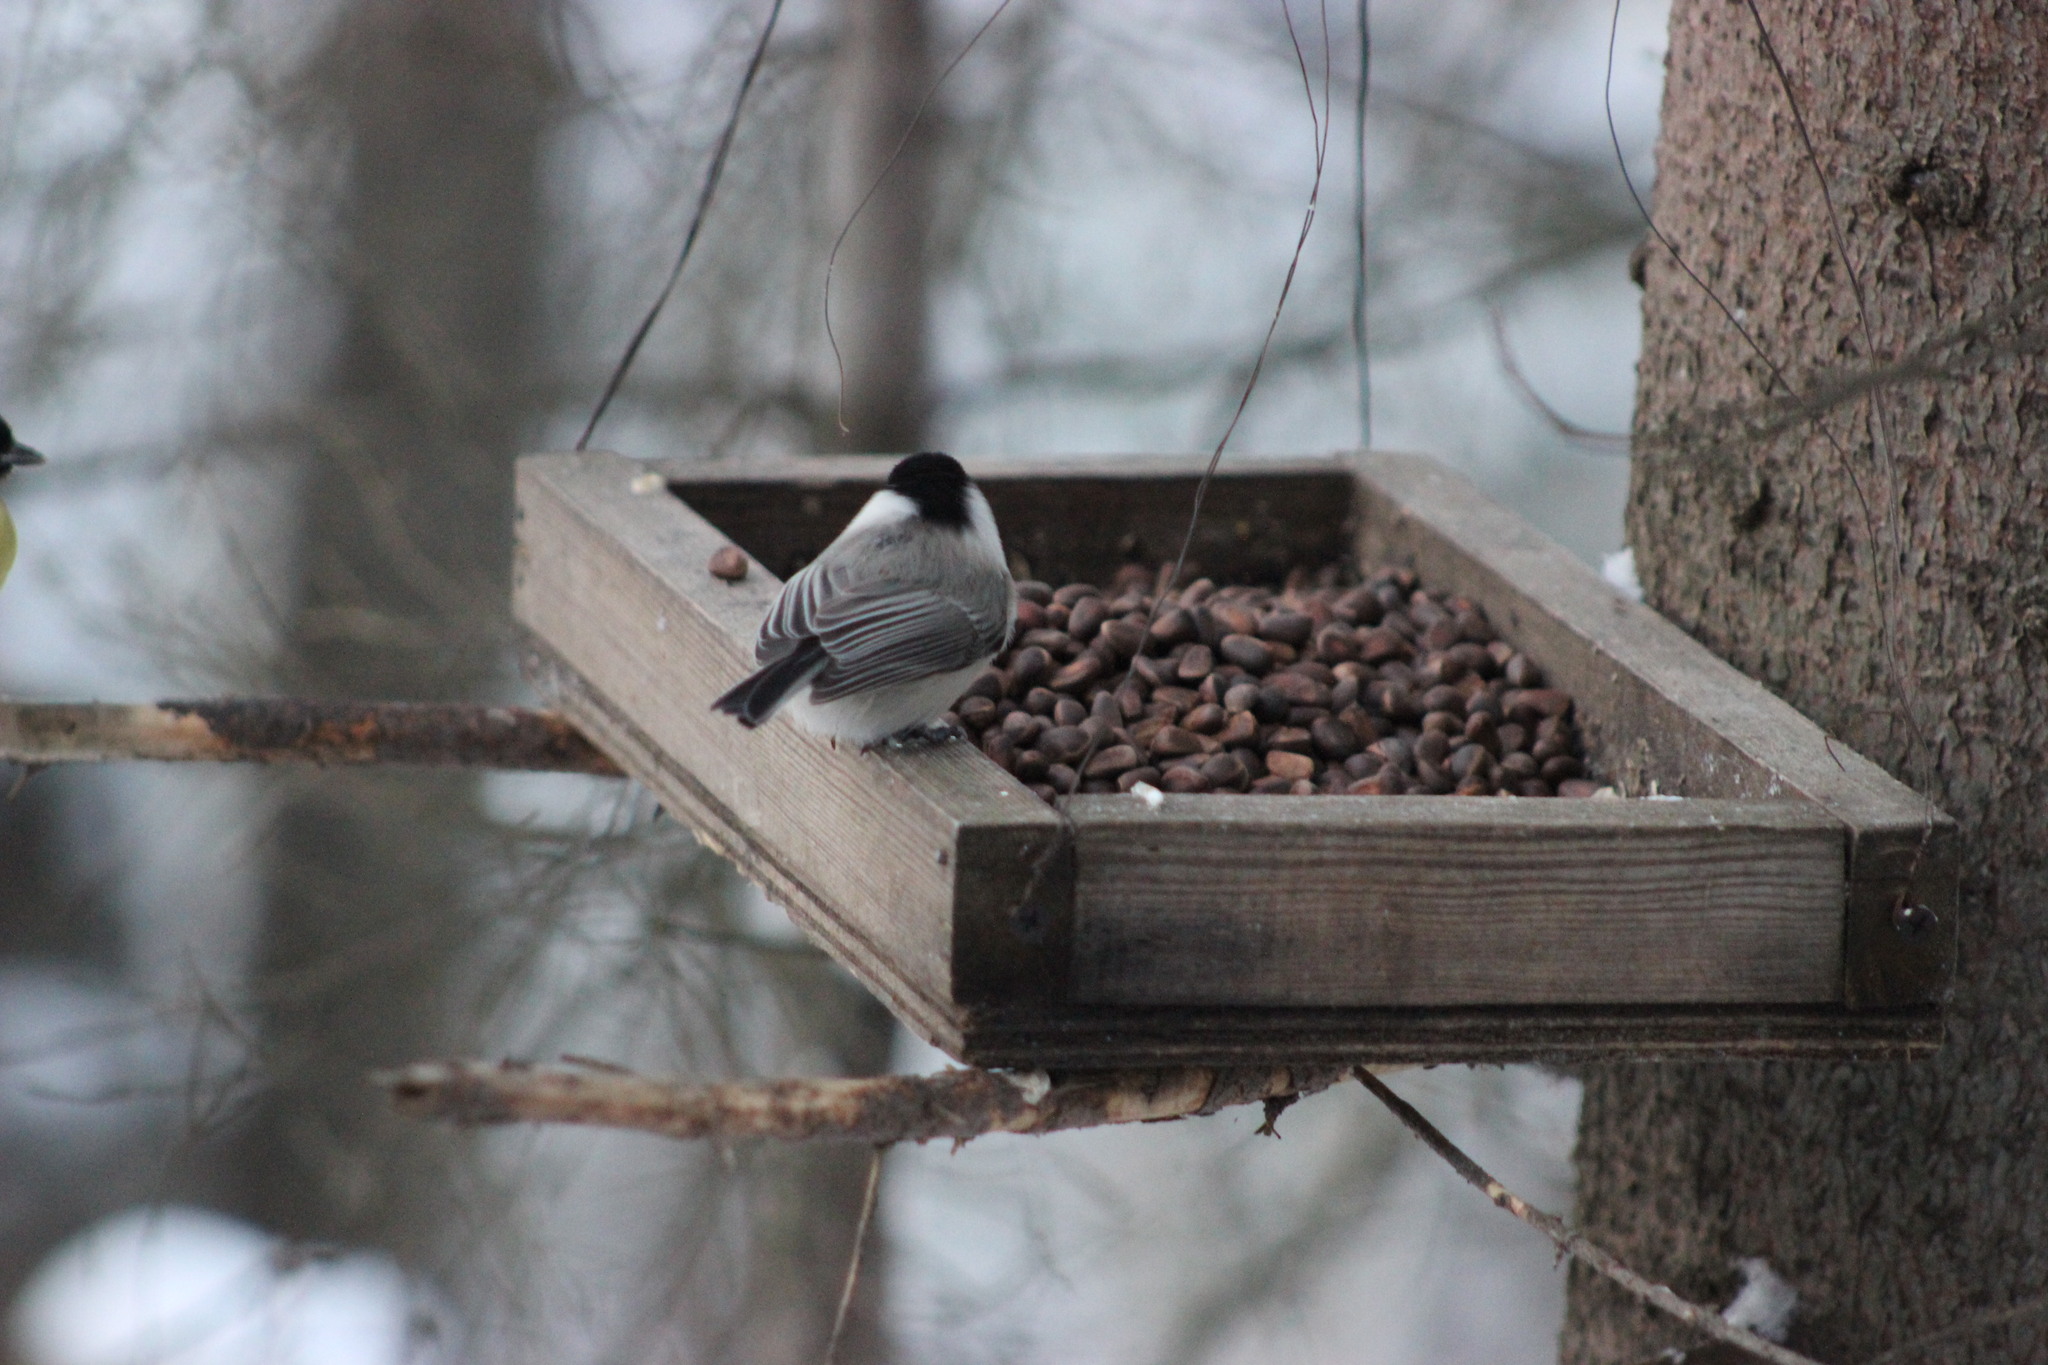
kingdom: Animalia
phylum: Chordata
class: Aves
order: Passeriformes
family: Paridae
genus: Poecile
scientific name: Poecile montanus
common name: Willow tit
